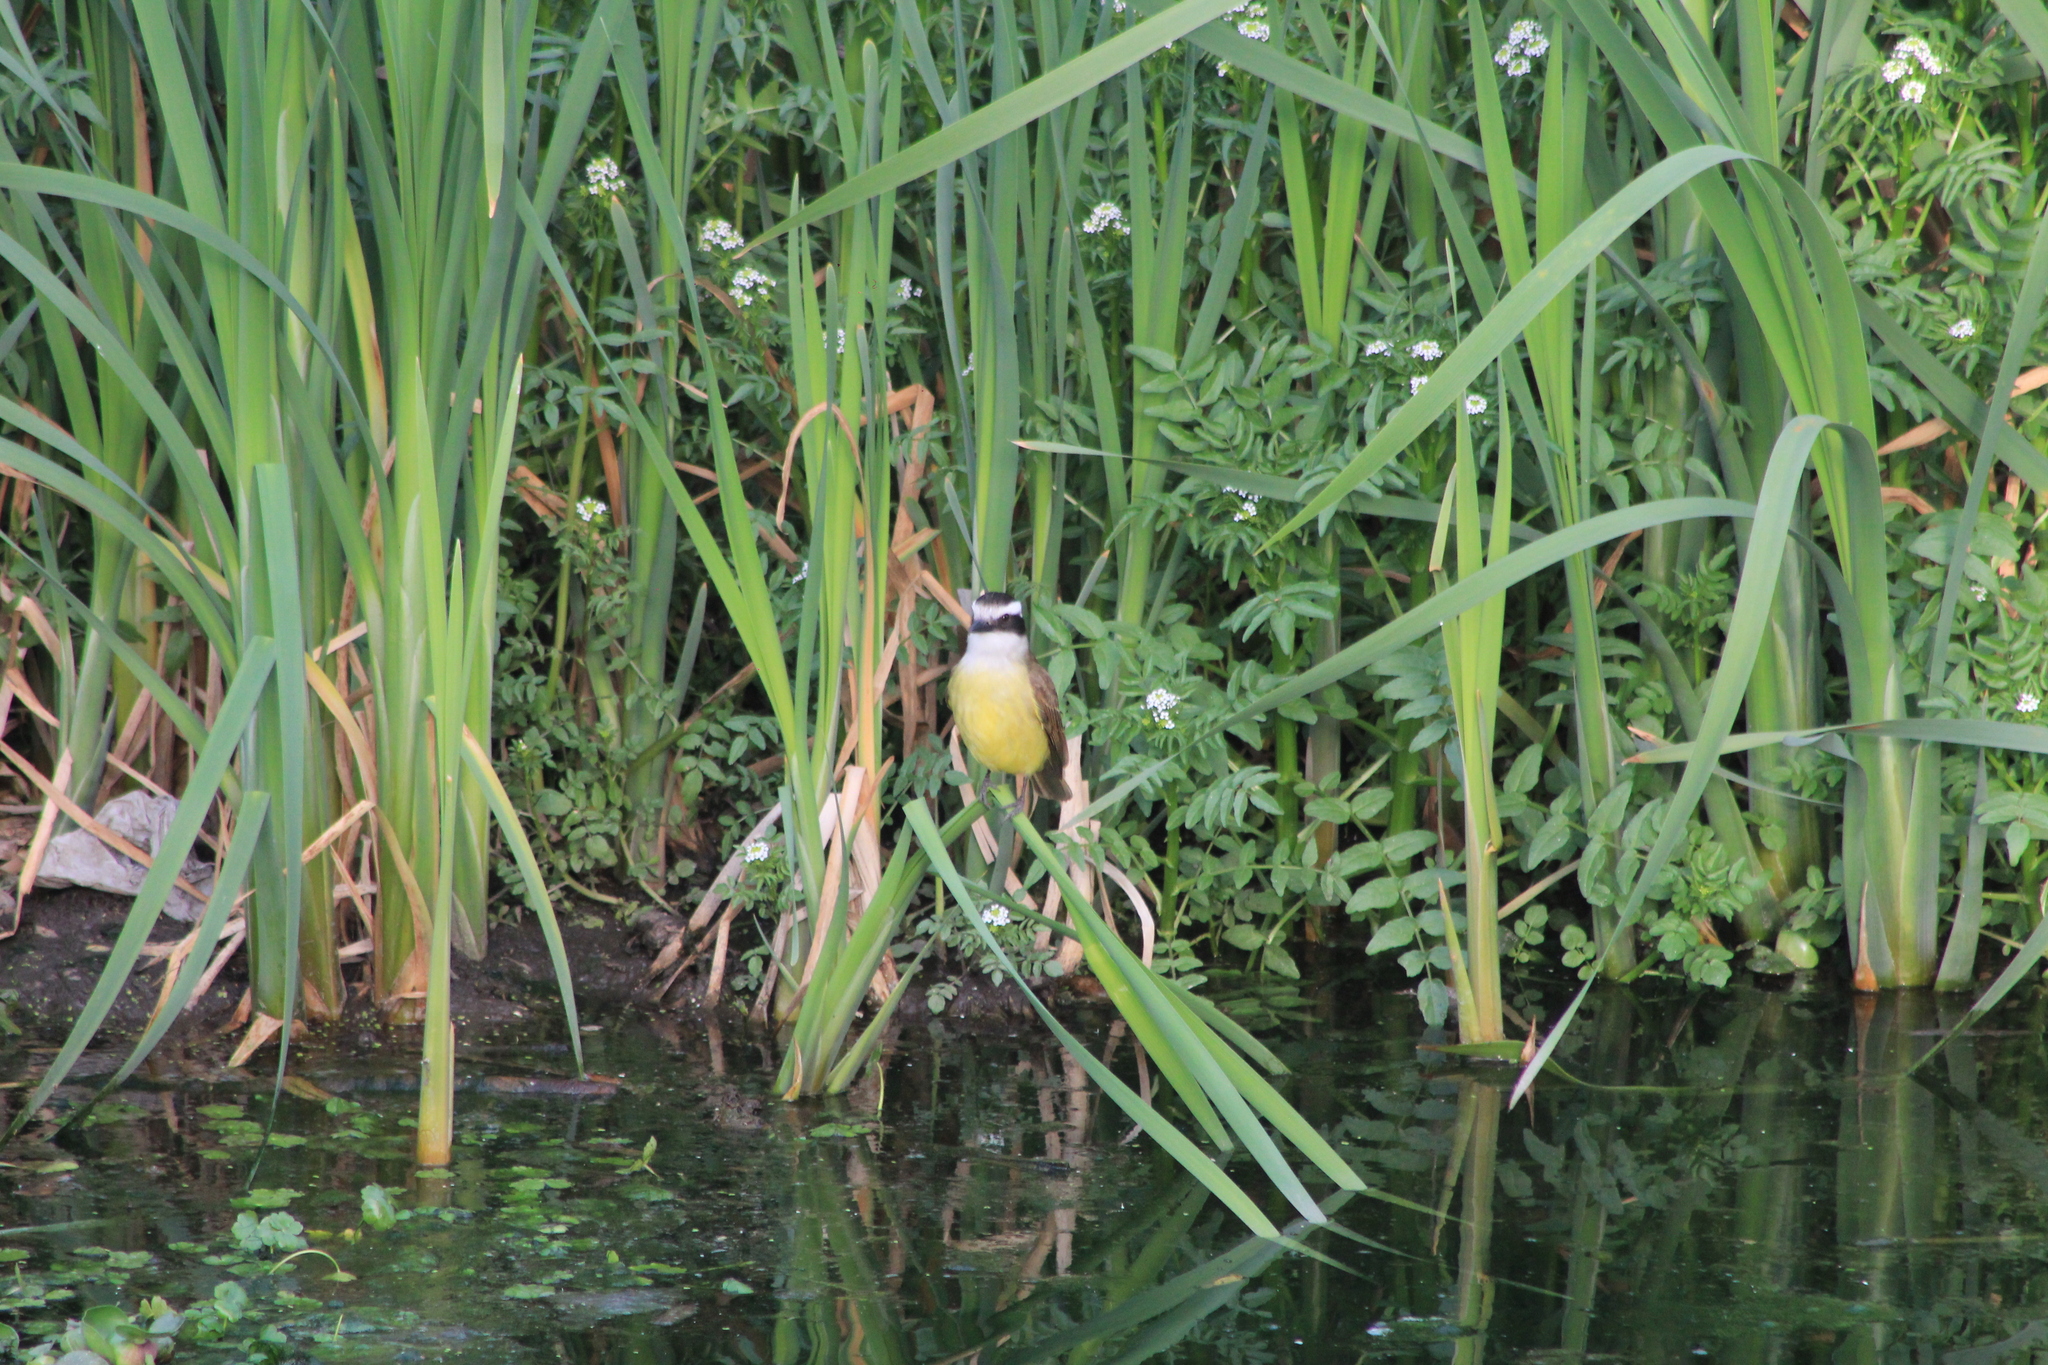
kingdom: Animalia
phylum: Chordata
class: Aves
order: Passeriformes
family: Tyrannidae
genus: Pitangus
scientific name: Pitangus sulphuratus
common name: Great kiskadee
